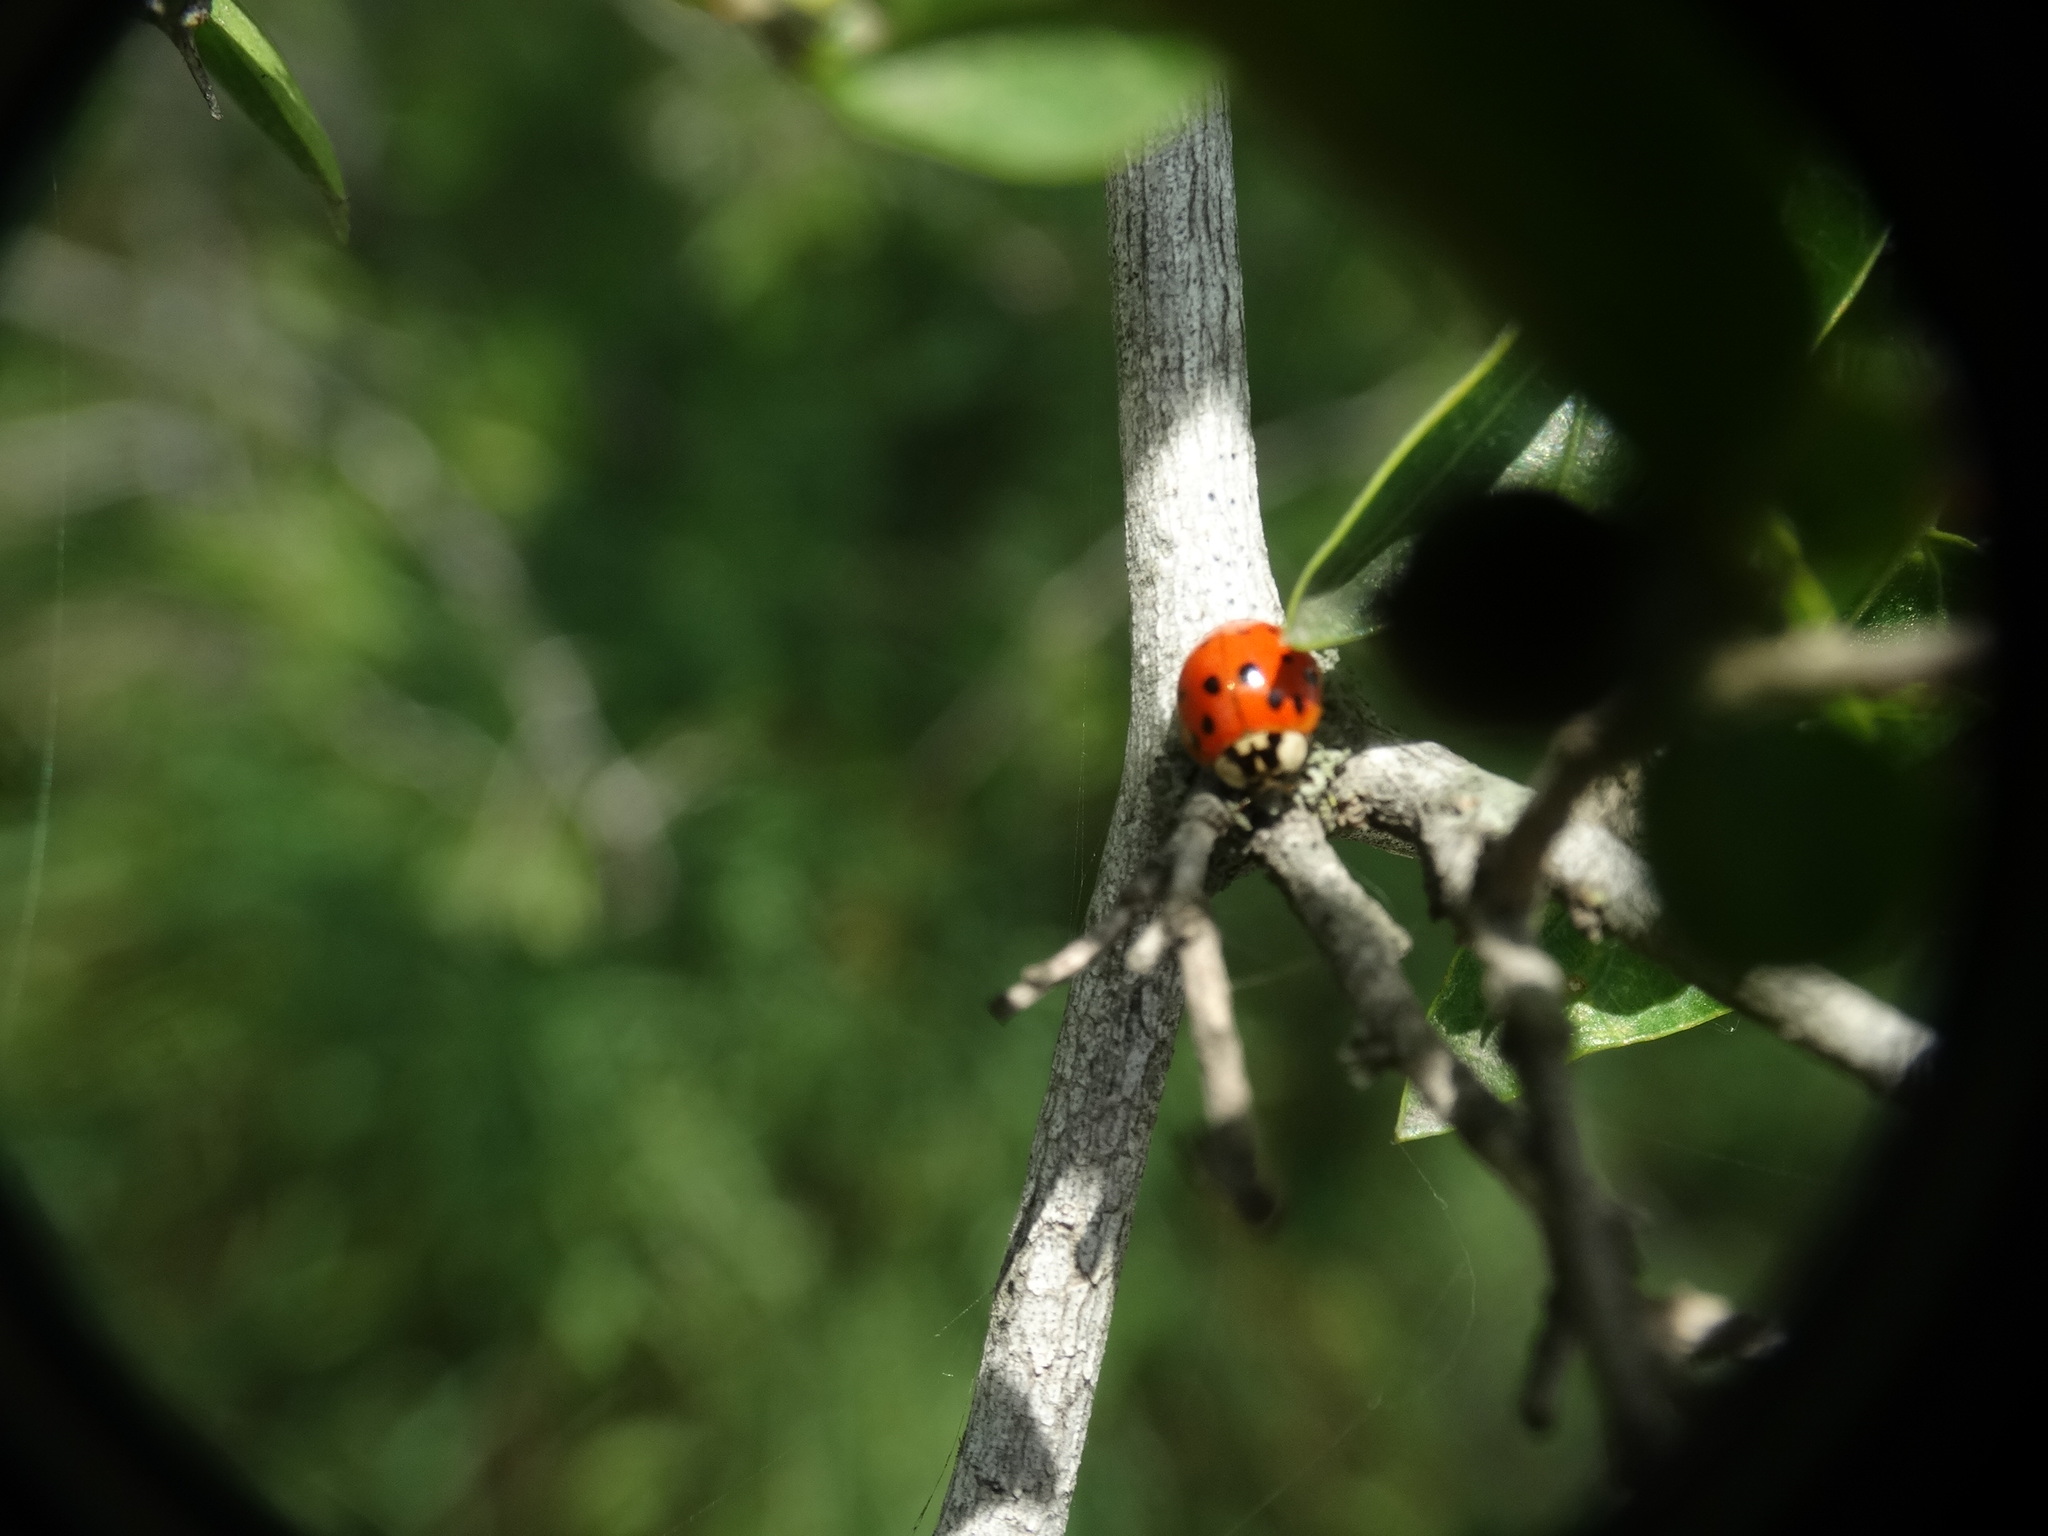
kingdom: Animalia
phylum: Arthropoda
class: Insecta
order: Coleoptera
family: Coccinellidae
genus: Harmonia
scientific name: Harmonia axyridis
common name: Harlequin ladybird
